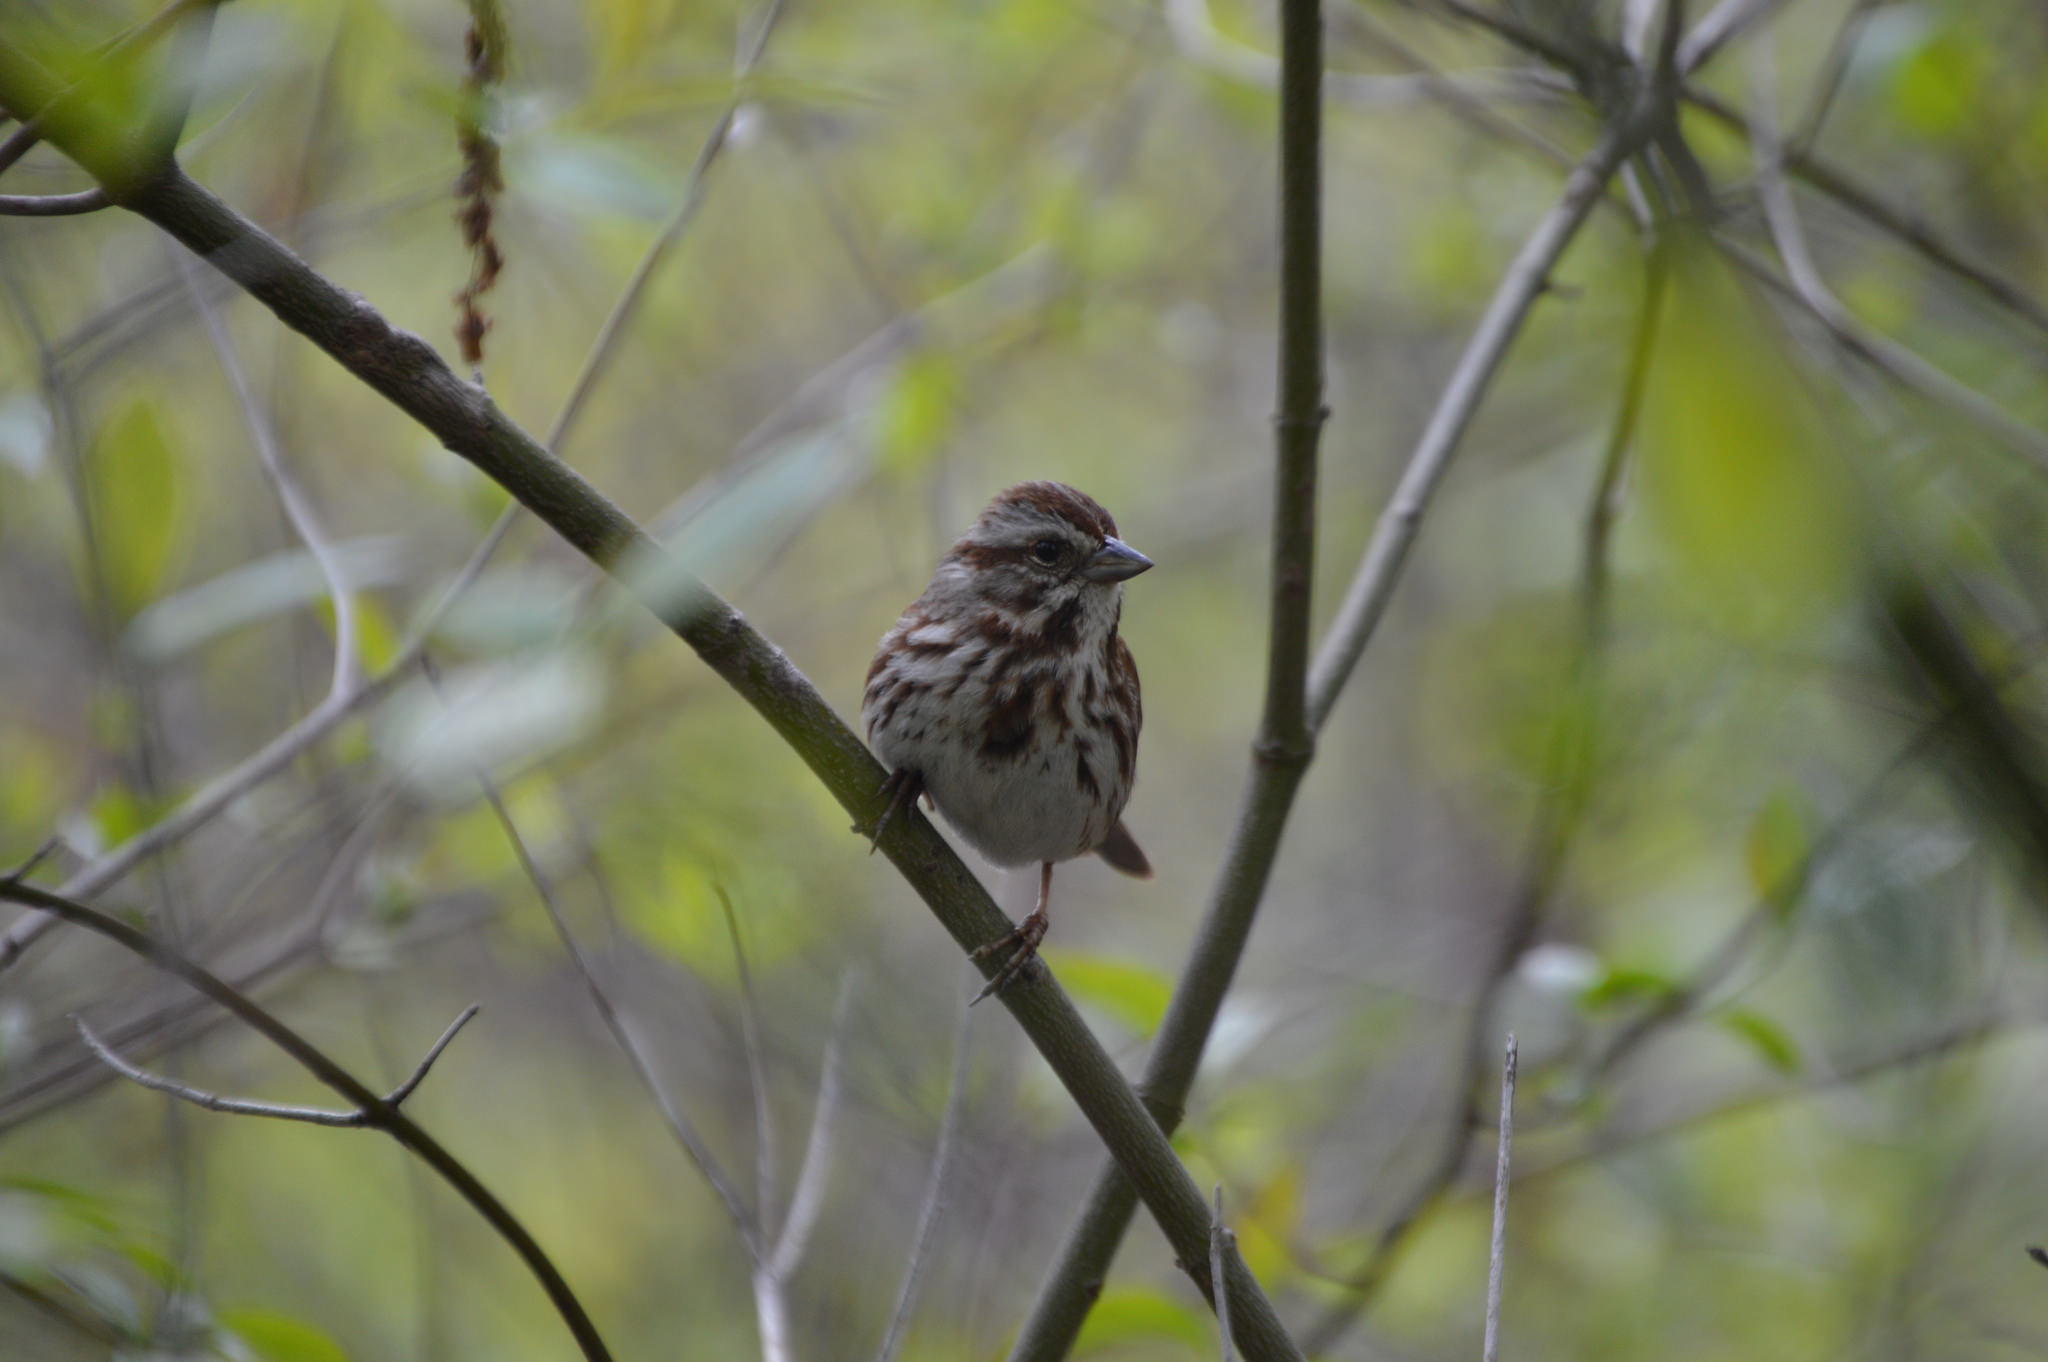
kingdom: Animalia
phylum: Chordata
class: Aves
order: Passeriformes
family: Passerellidae
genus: Melospiza
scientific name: Melospiza melodia
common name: Song sparrow
